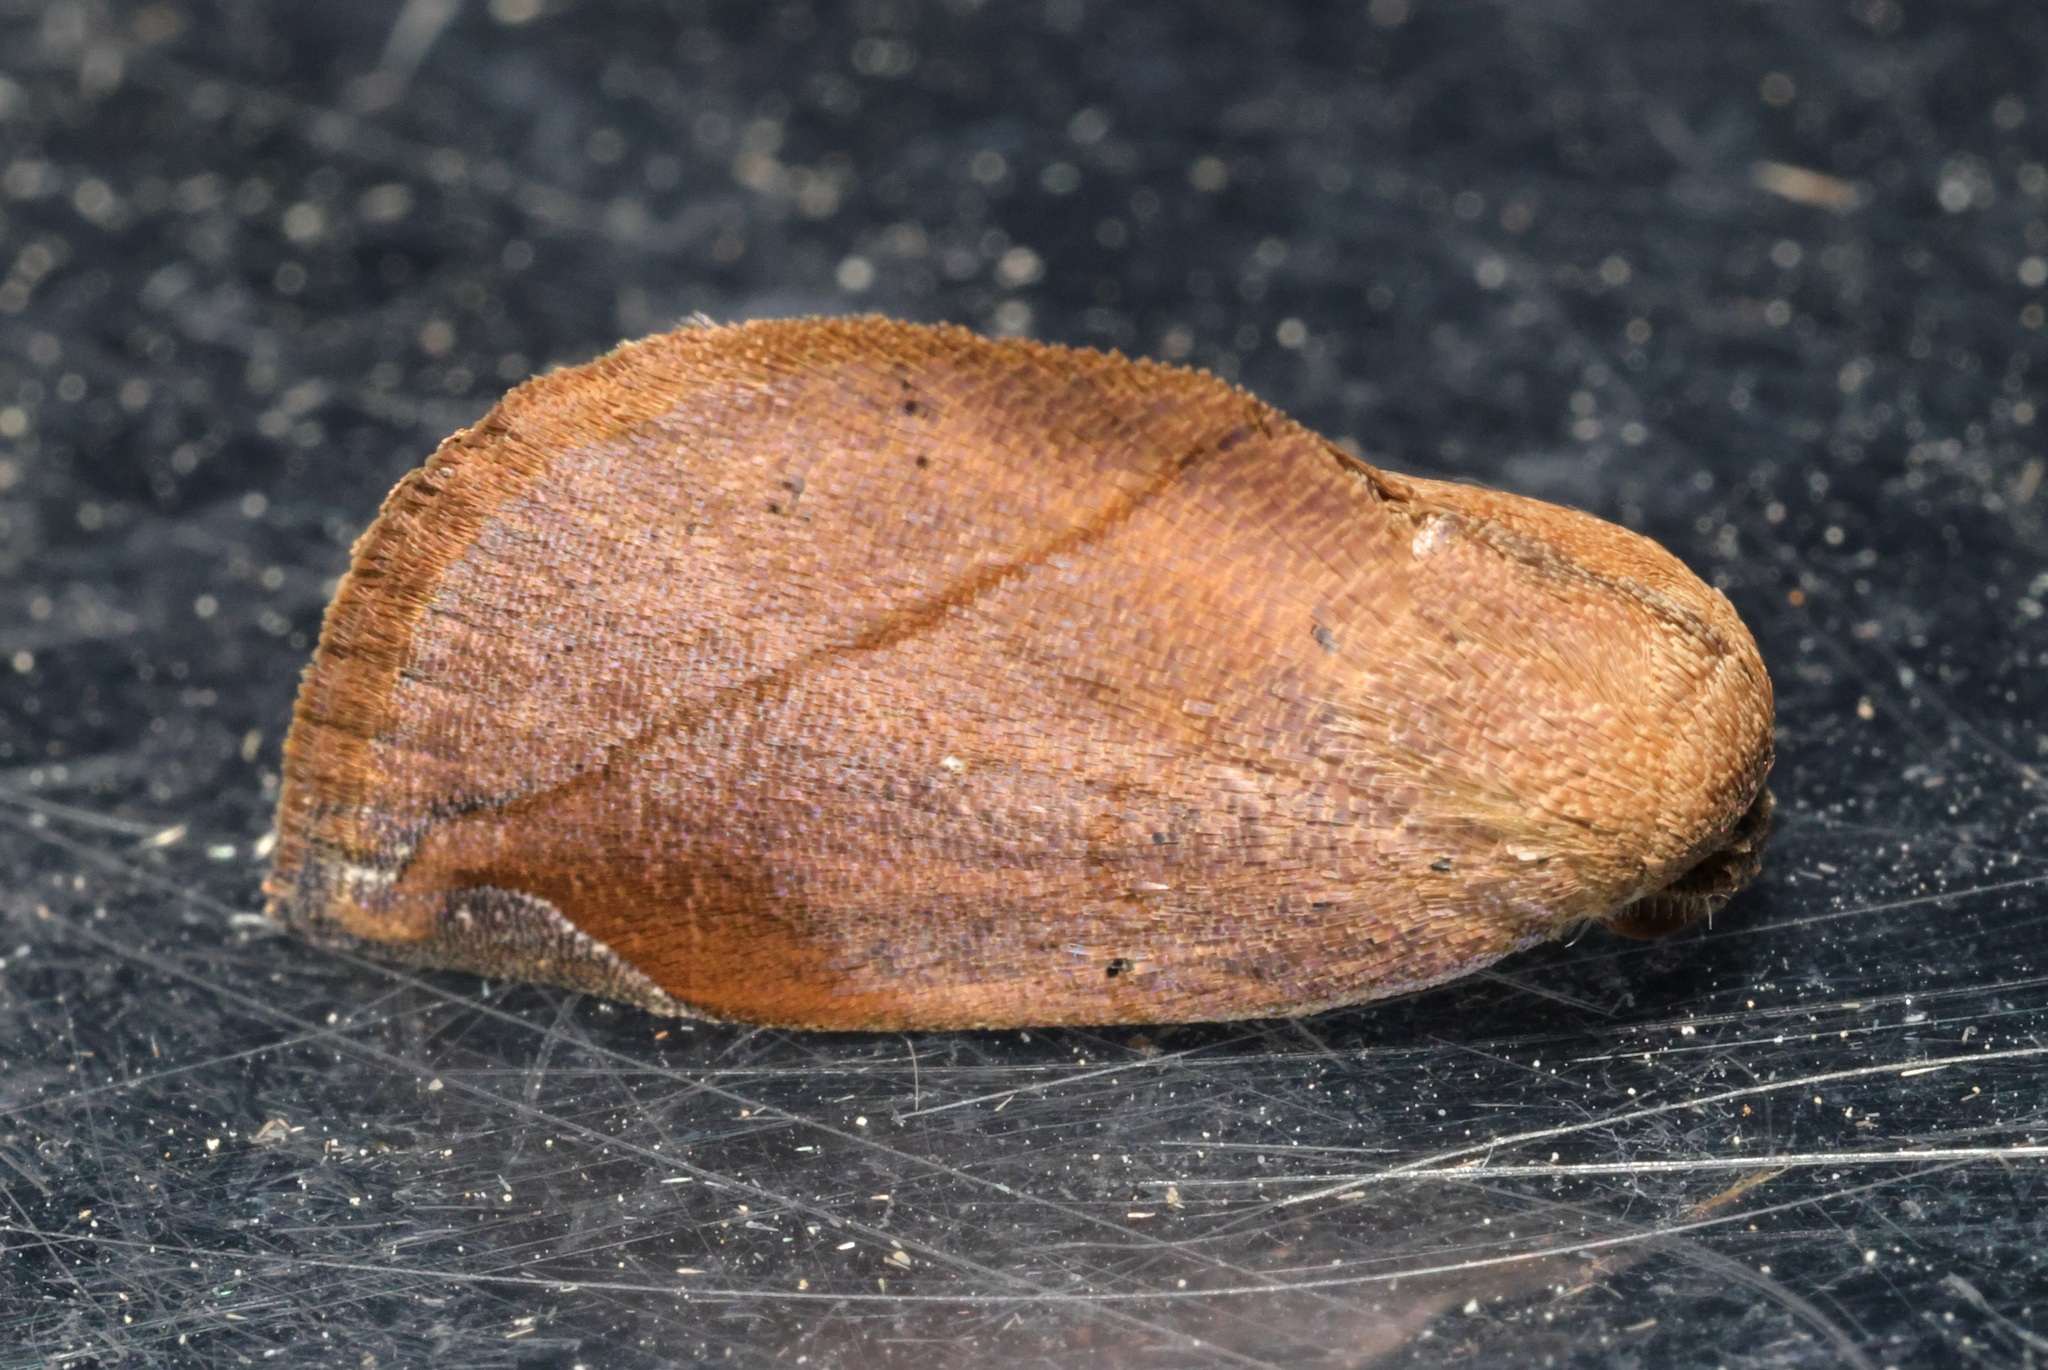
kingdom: Animalia
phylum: Arthropoda
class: Insecta
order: Lepidoptera
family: Nolidae
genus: Negeta
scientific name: Negeta contrariata
